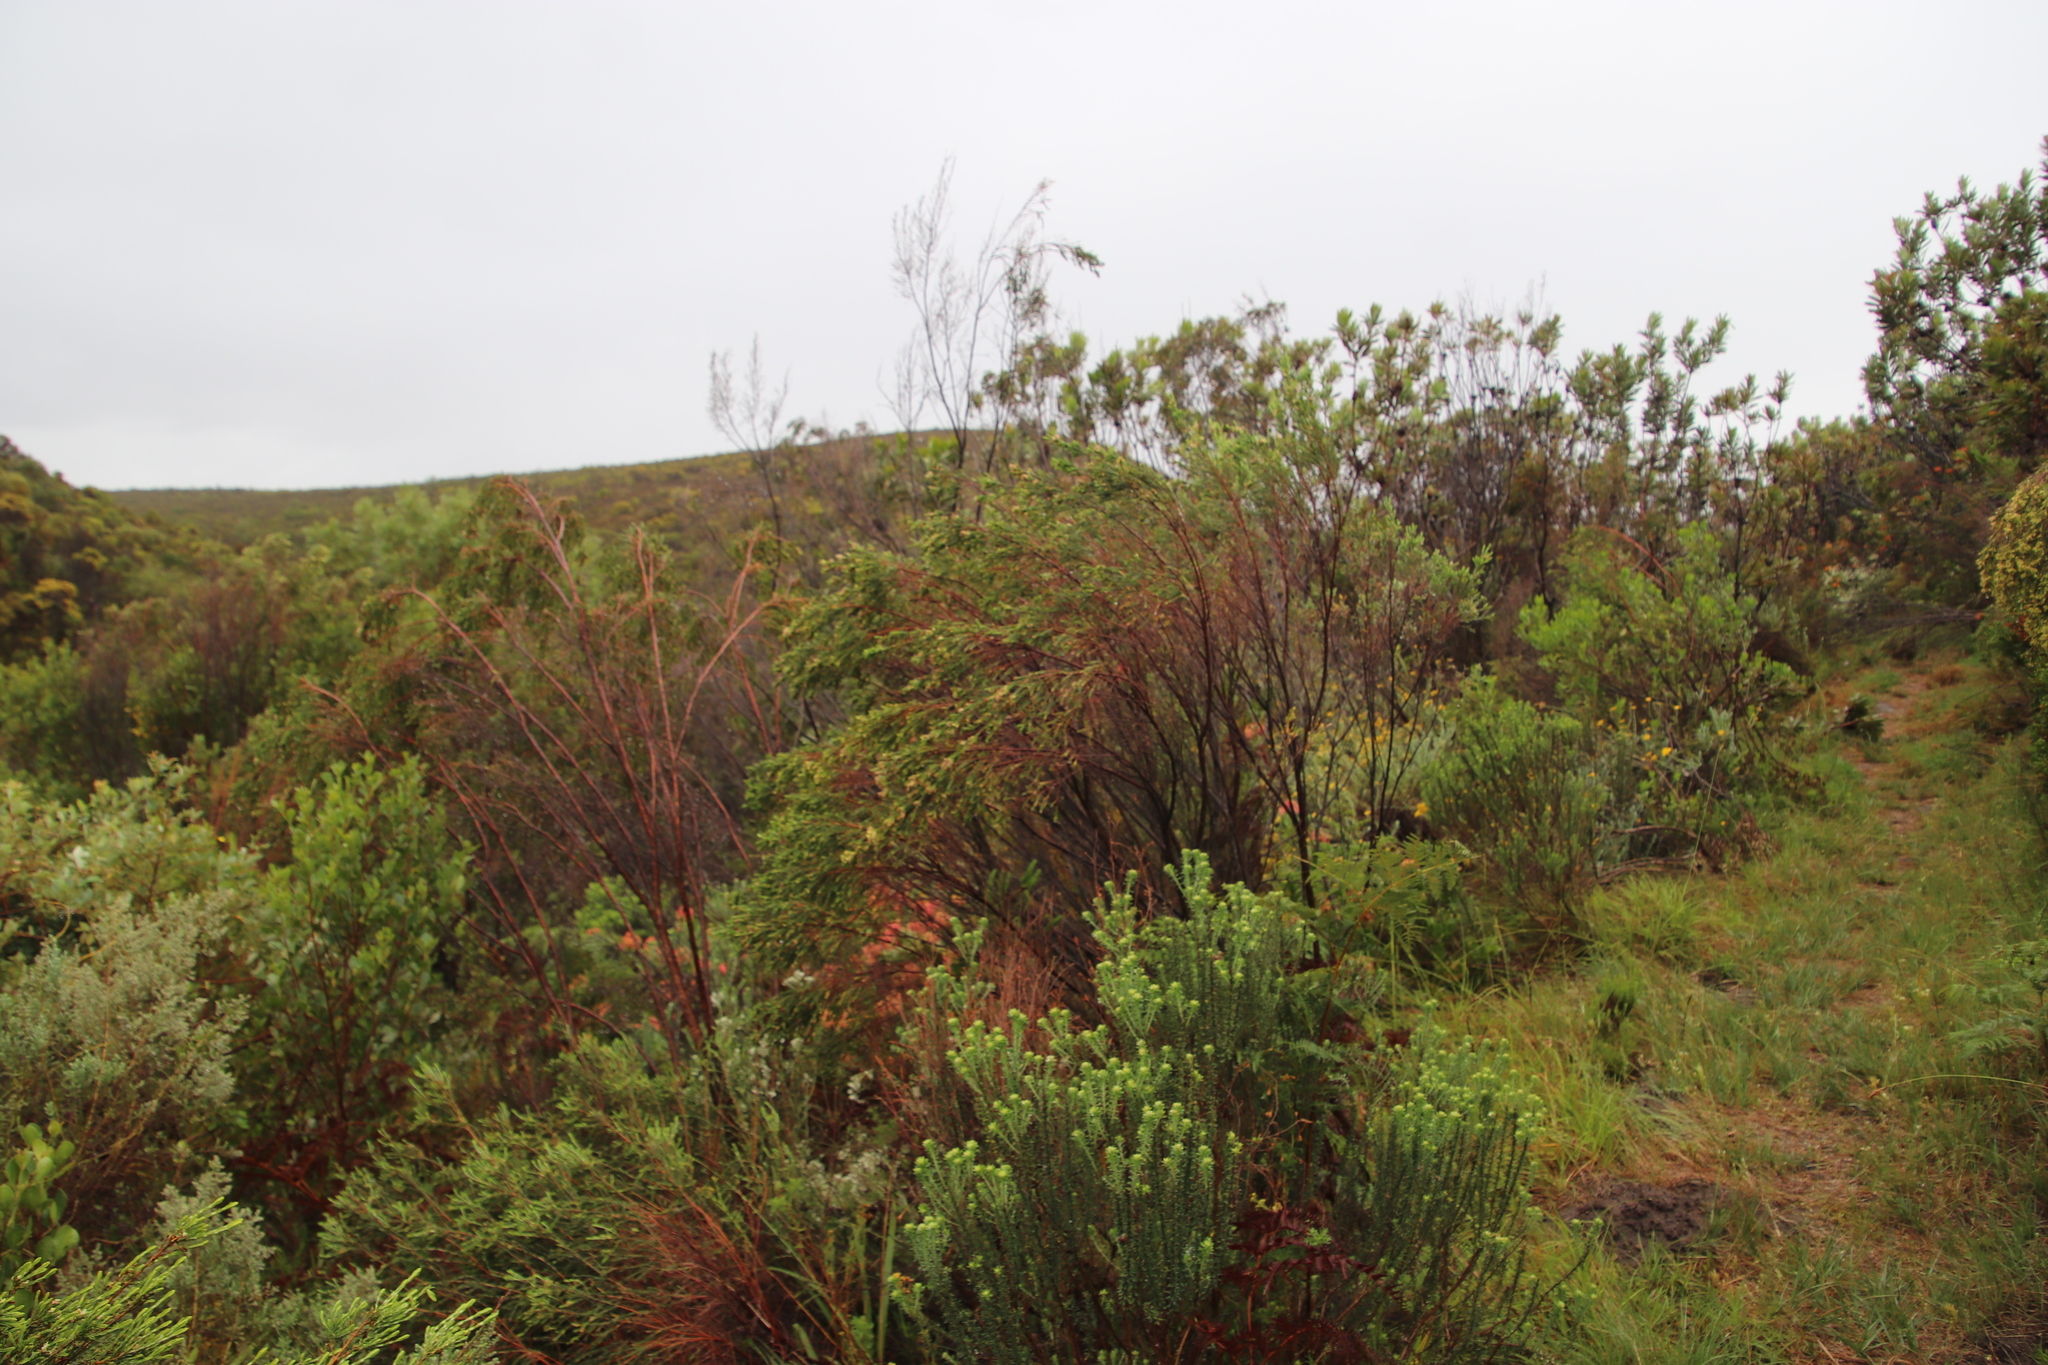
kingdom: Plantae
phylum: Tracheophyta
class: Magnoliopsida
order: Malvales
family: Thymelaeaceae
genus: Passerina
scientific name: Passerina corymbosa
